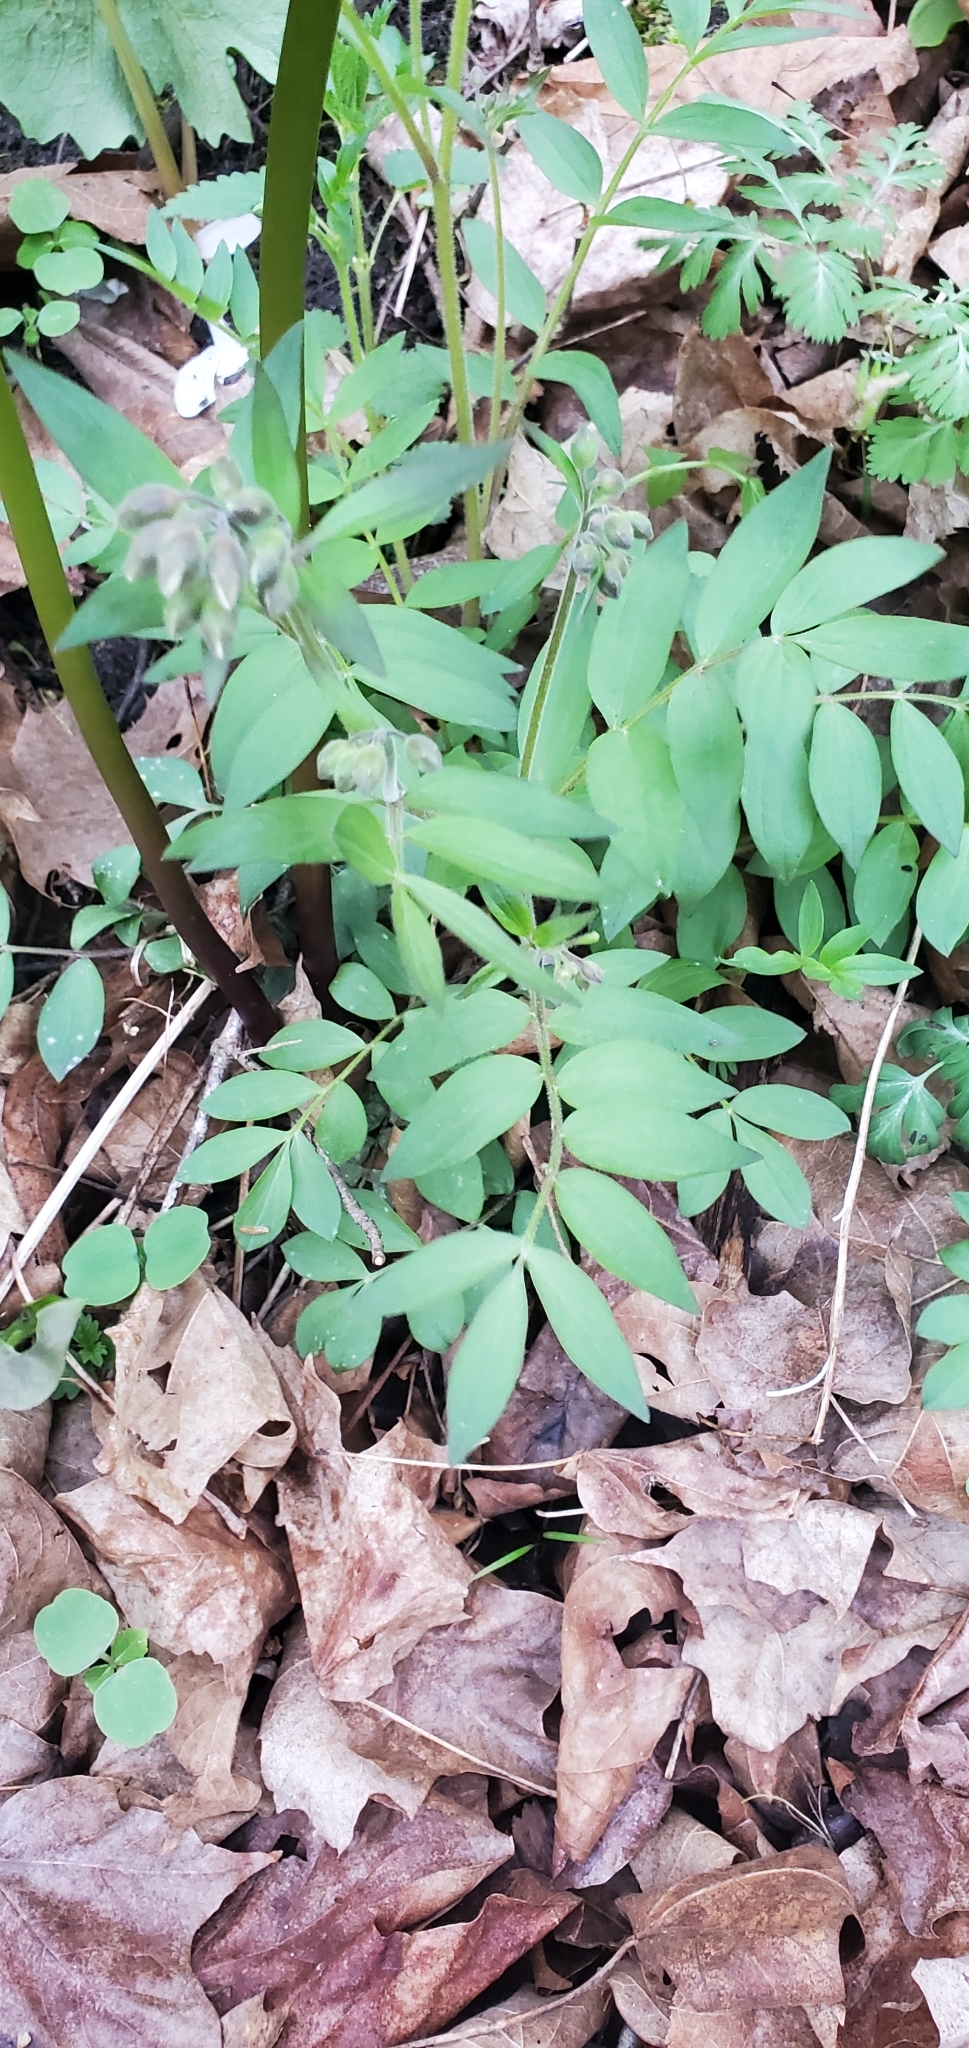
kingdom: Plantae
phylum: Tracheophyta
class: Magnoliopsida
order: Ericales
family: Polemoniaceae
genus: Polemonium
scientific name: Polemonium reptans
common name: Creeping jacob's-ladder
